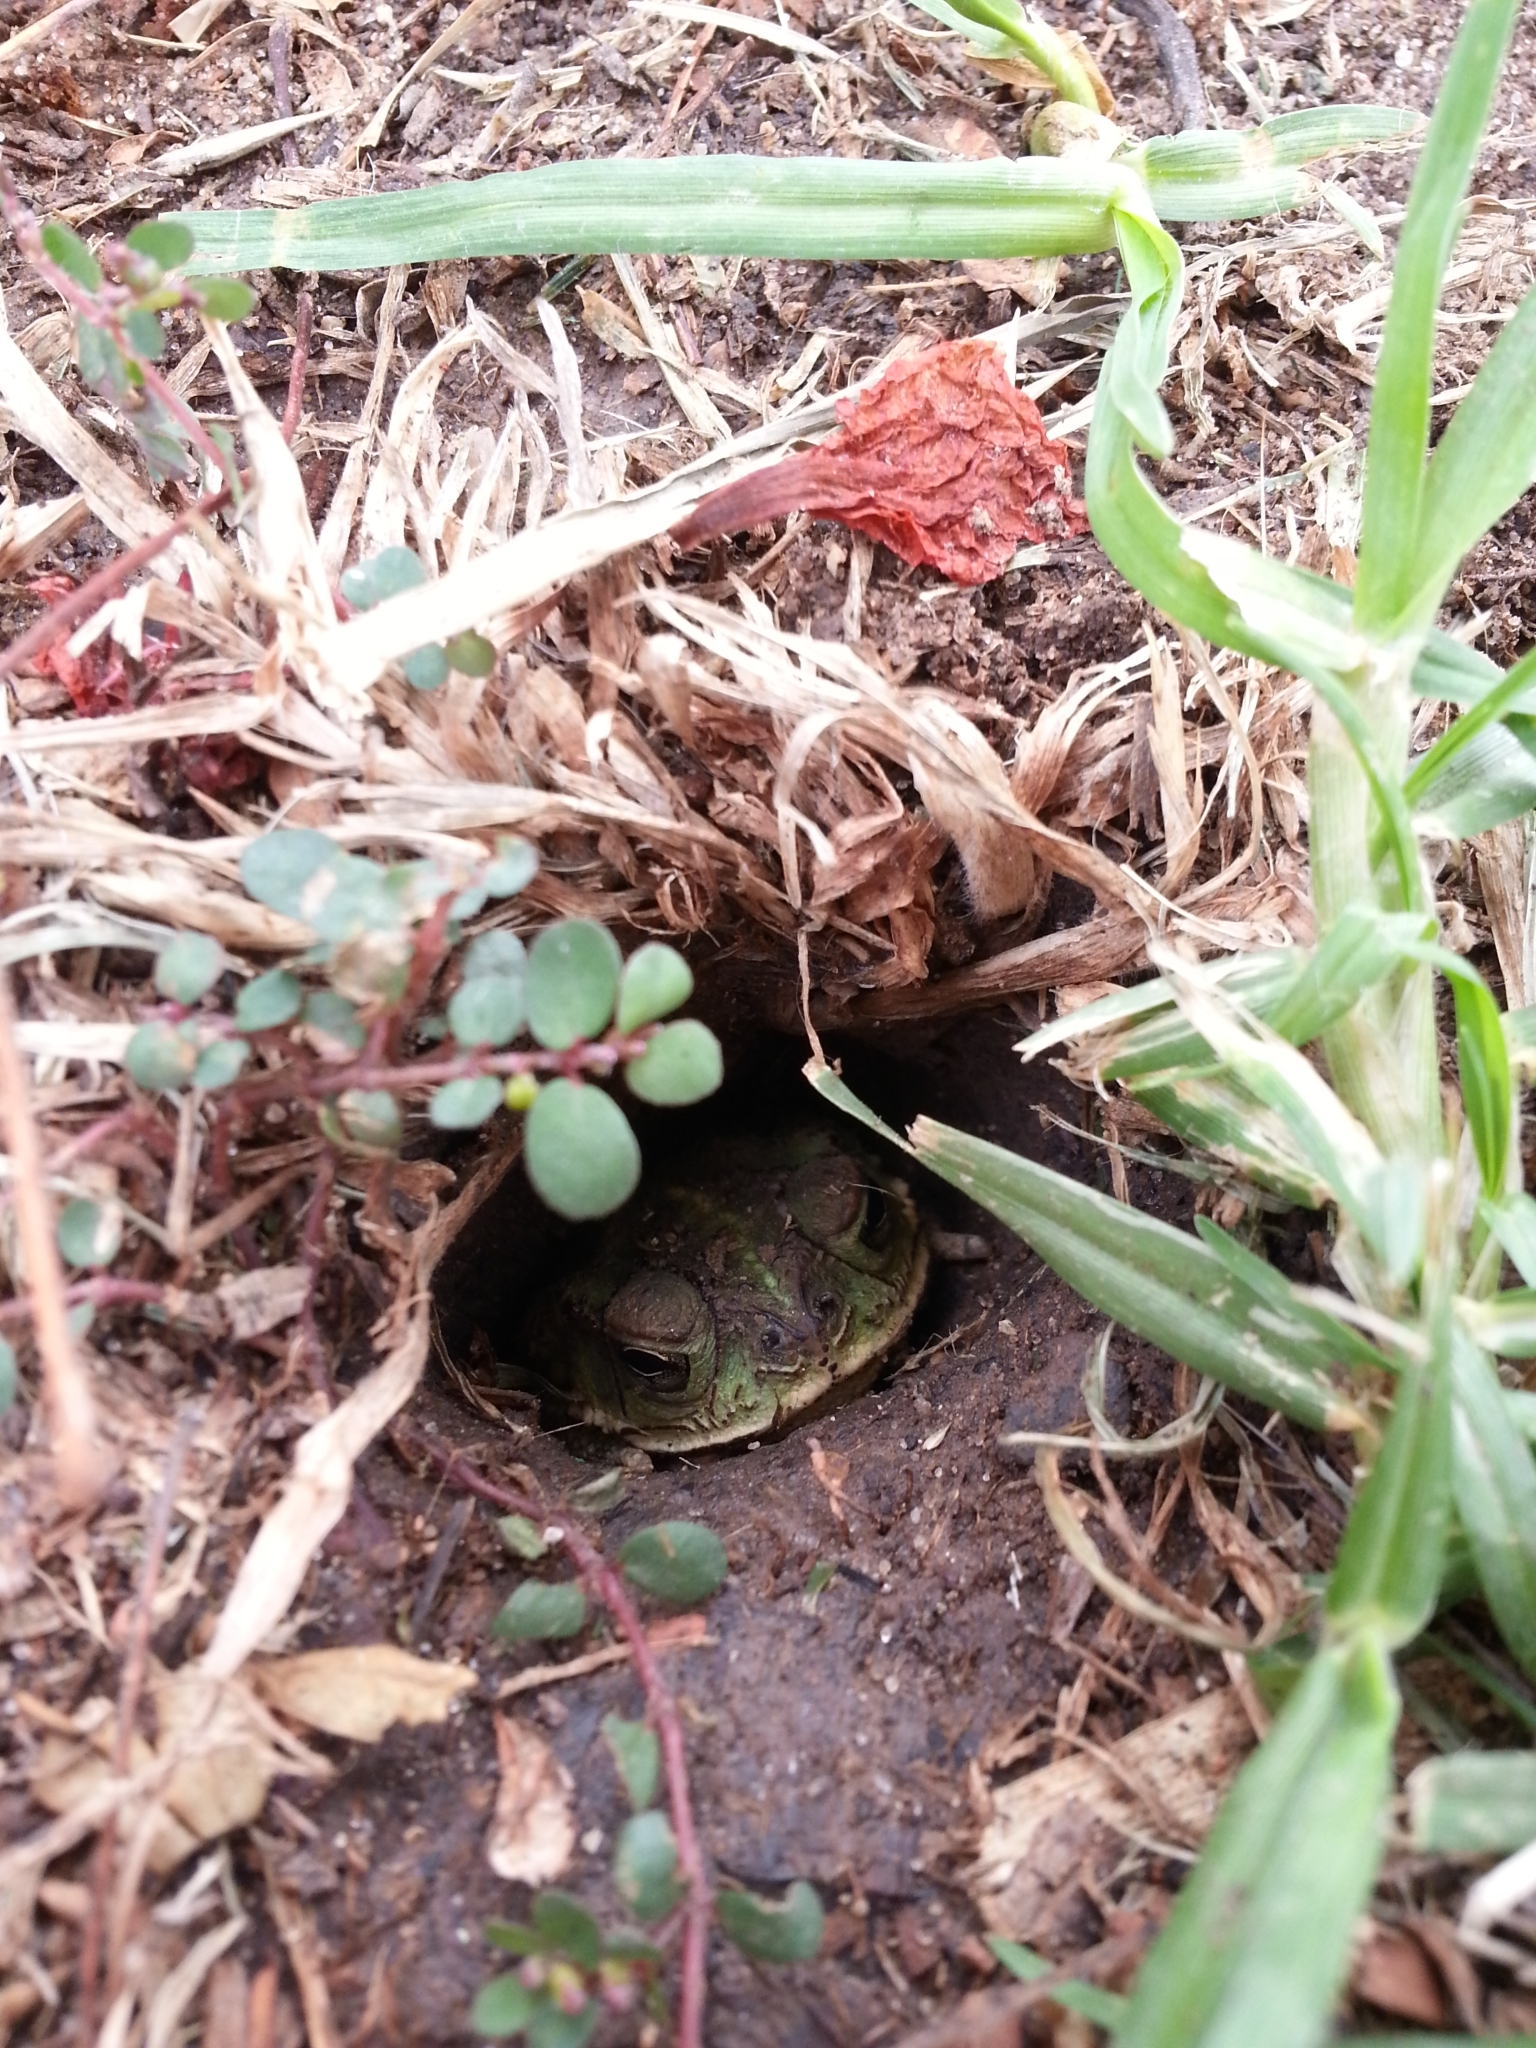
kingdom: Animalia
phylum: Chordata
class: Amphibia
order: Anura
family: Bufonidae
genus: Rhinella
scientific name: Rhinella dorbignyi
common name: D´orbigny’s toad
